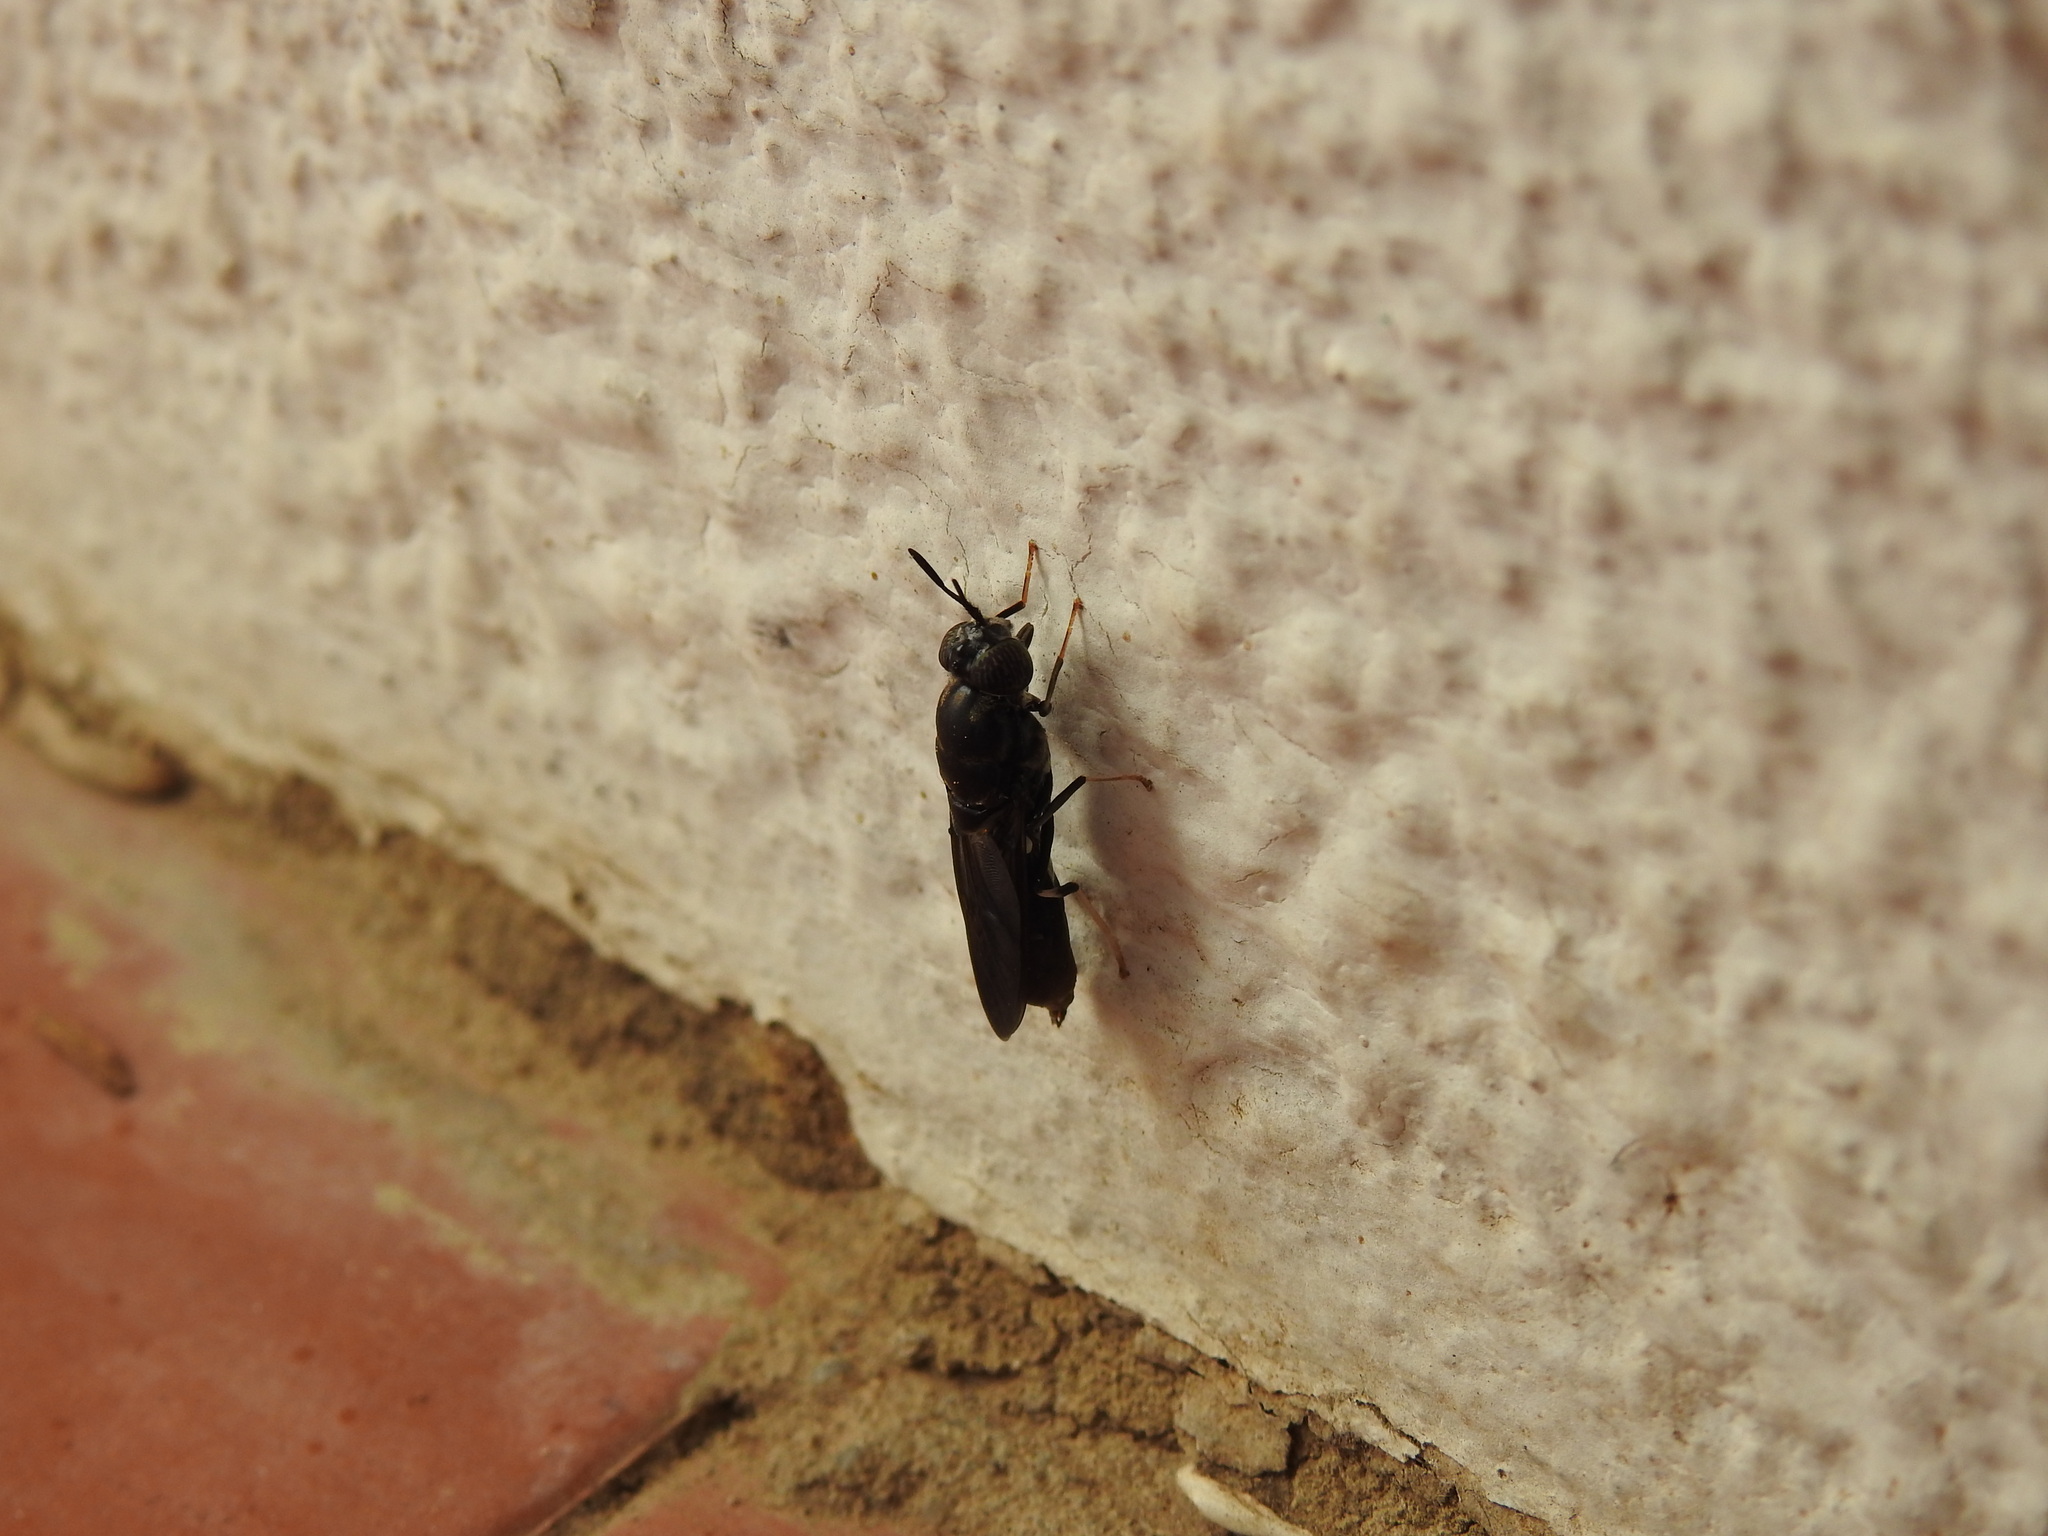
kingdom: Animalia
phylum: Arthropoda
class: Insecta
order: Diptera
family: Stratiomyidae
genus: Hermetia
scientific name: Hermetia illucens
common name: Black soldier fly
